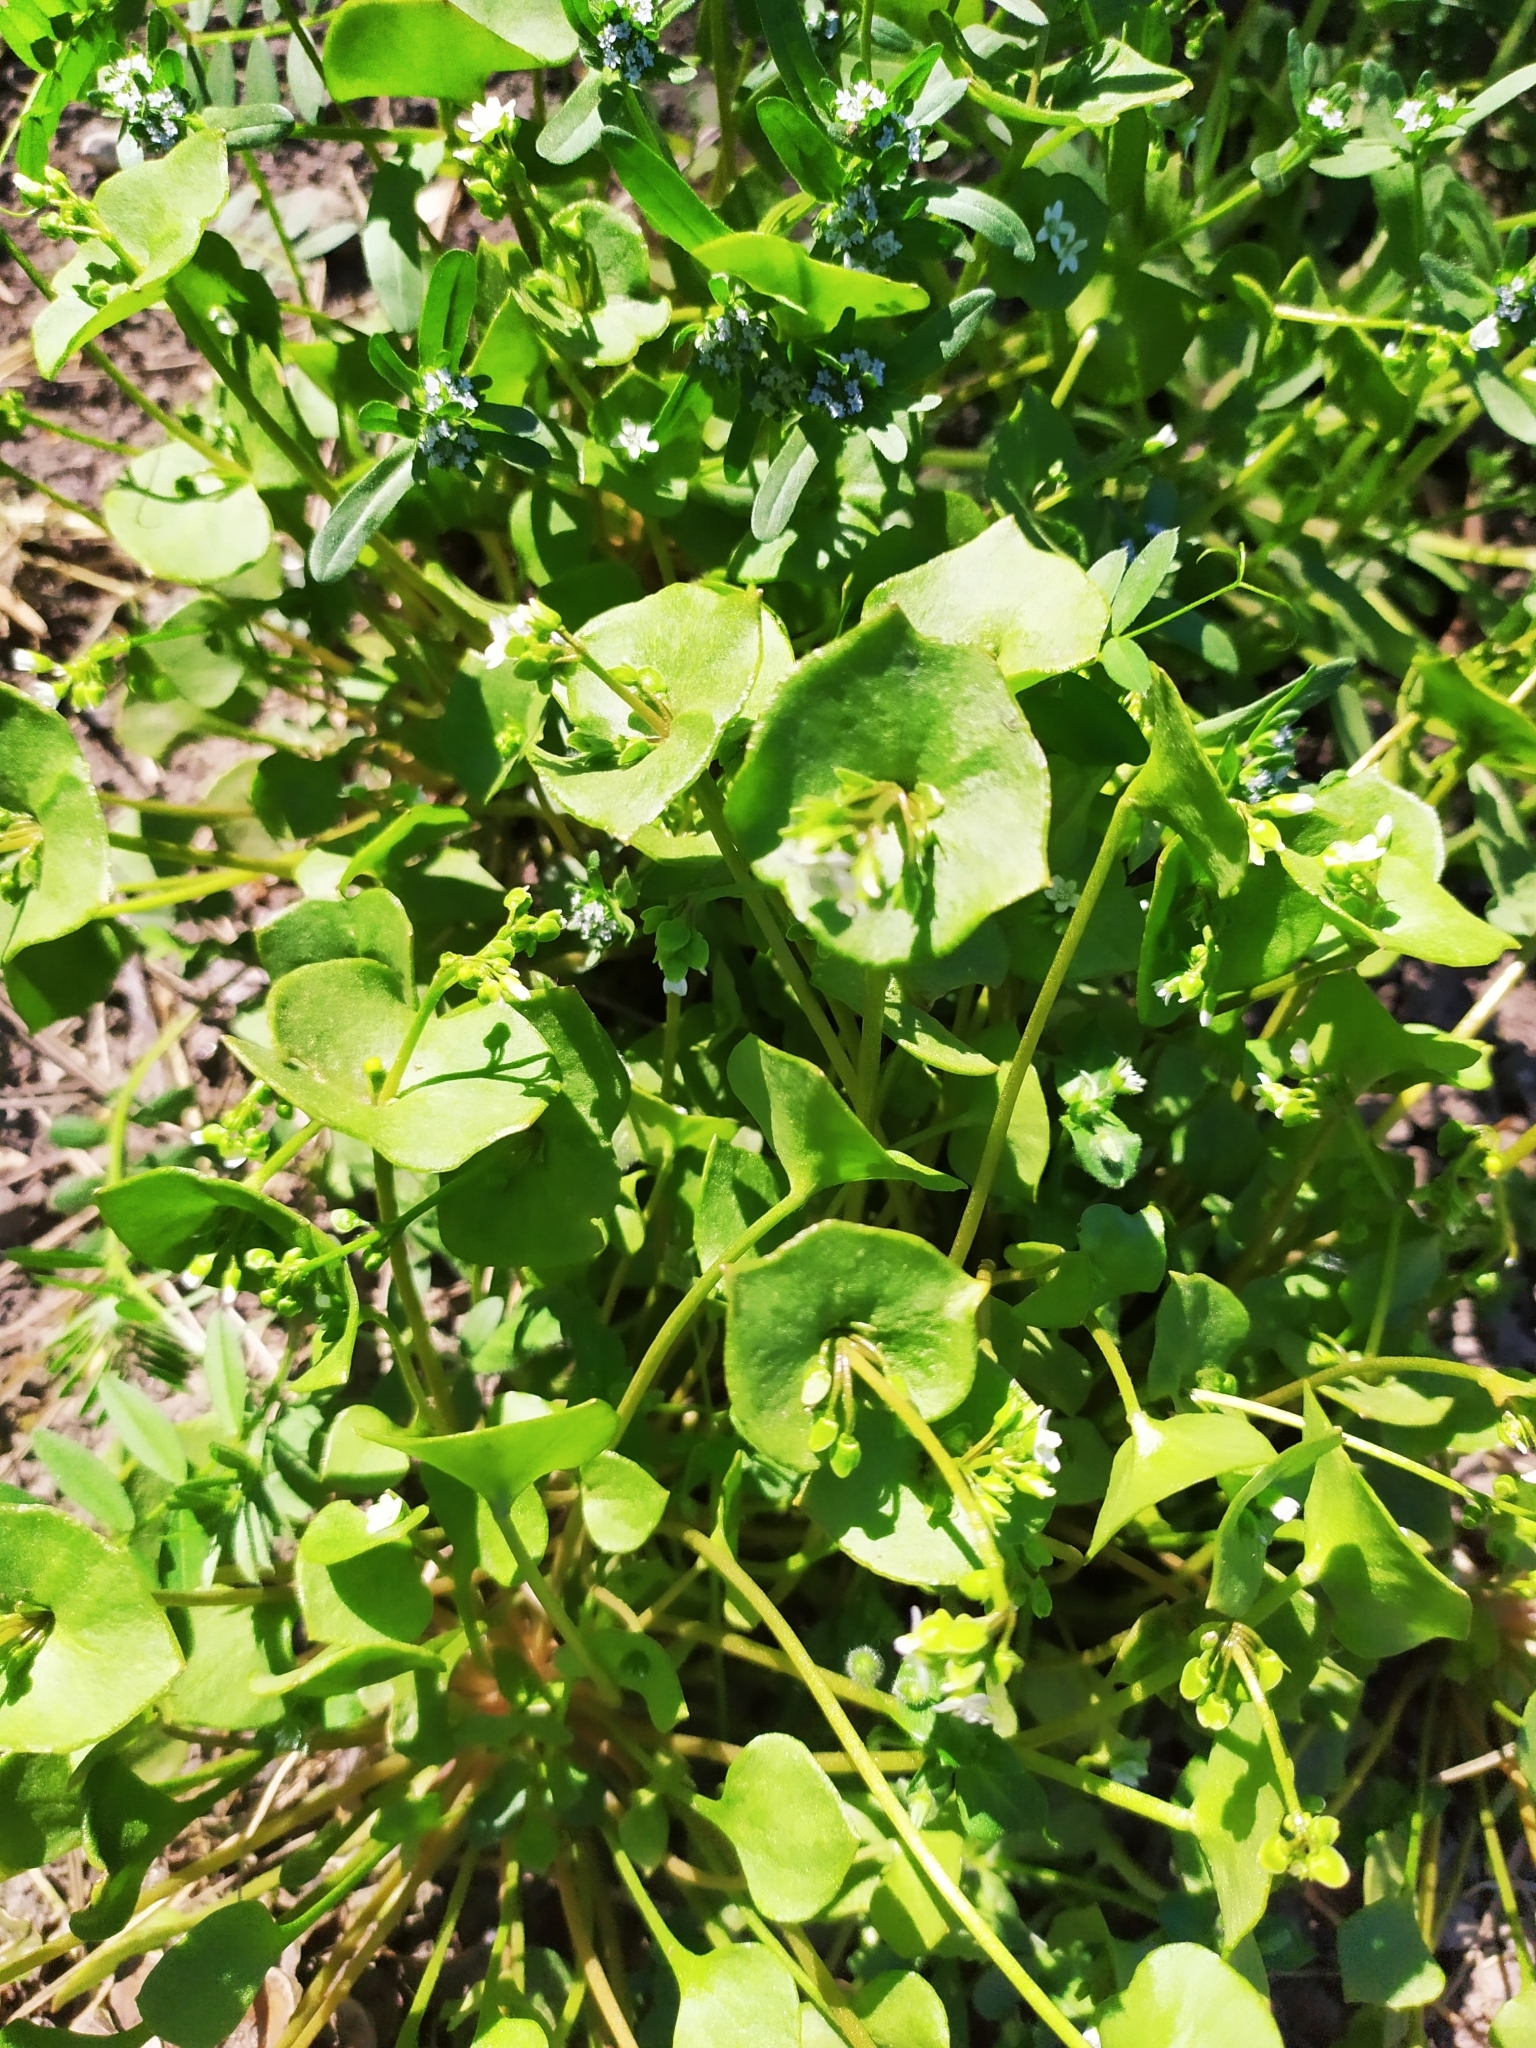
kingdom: Plantae
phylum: Tracheophyta
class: Magnoliopsida
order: Caryophyllales
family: Montiaceae
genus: Claytonia
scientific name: Claytonia perfoliata
